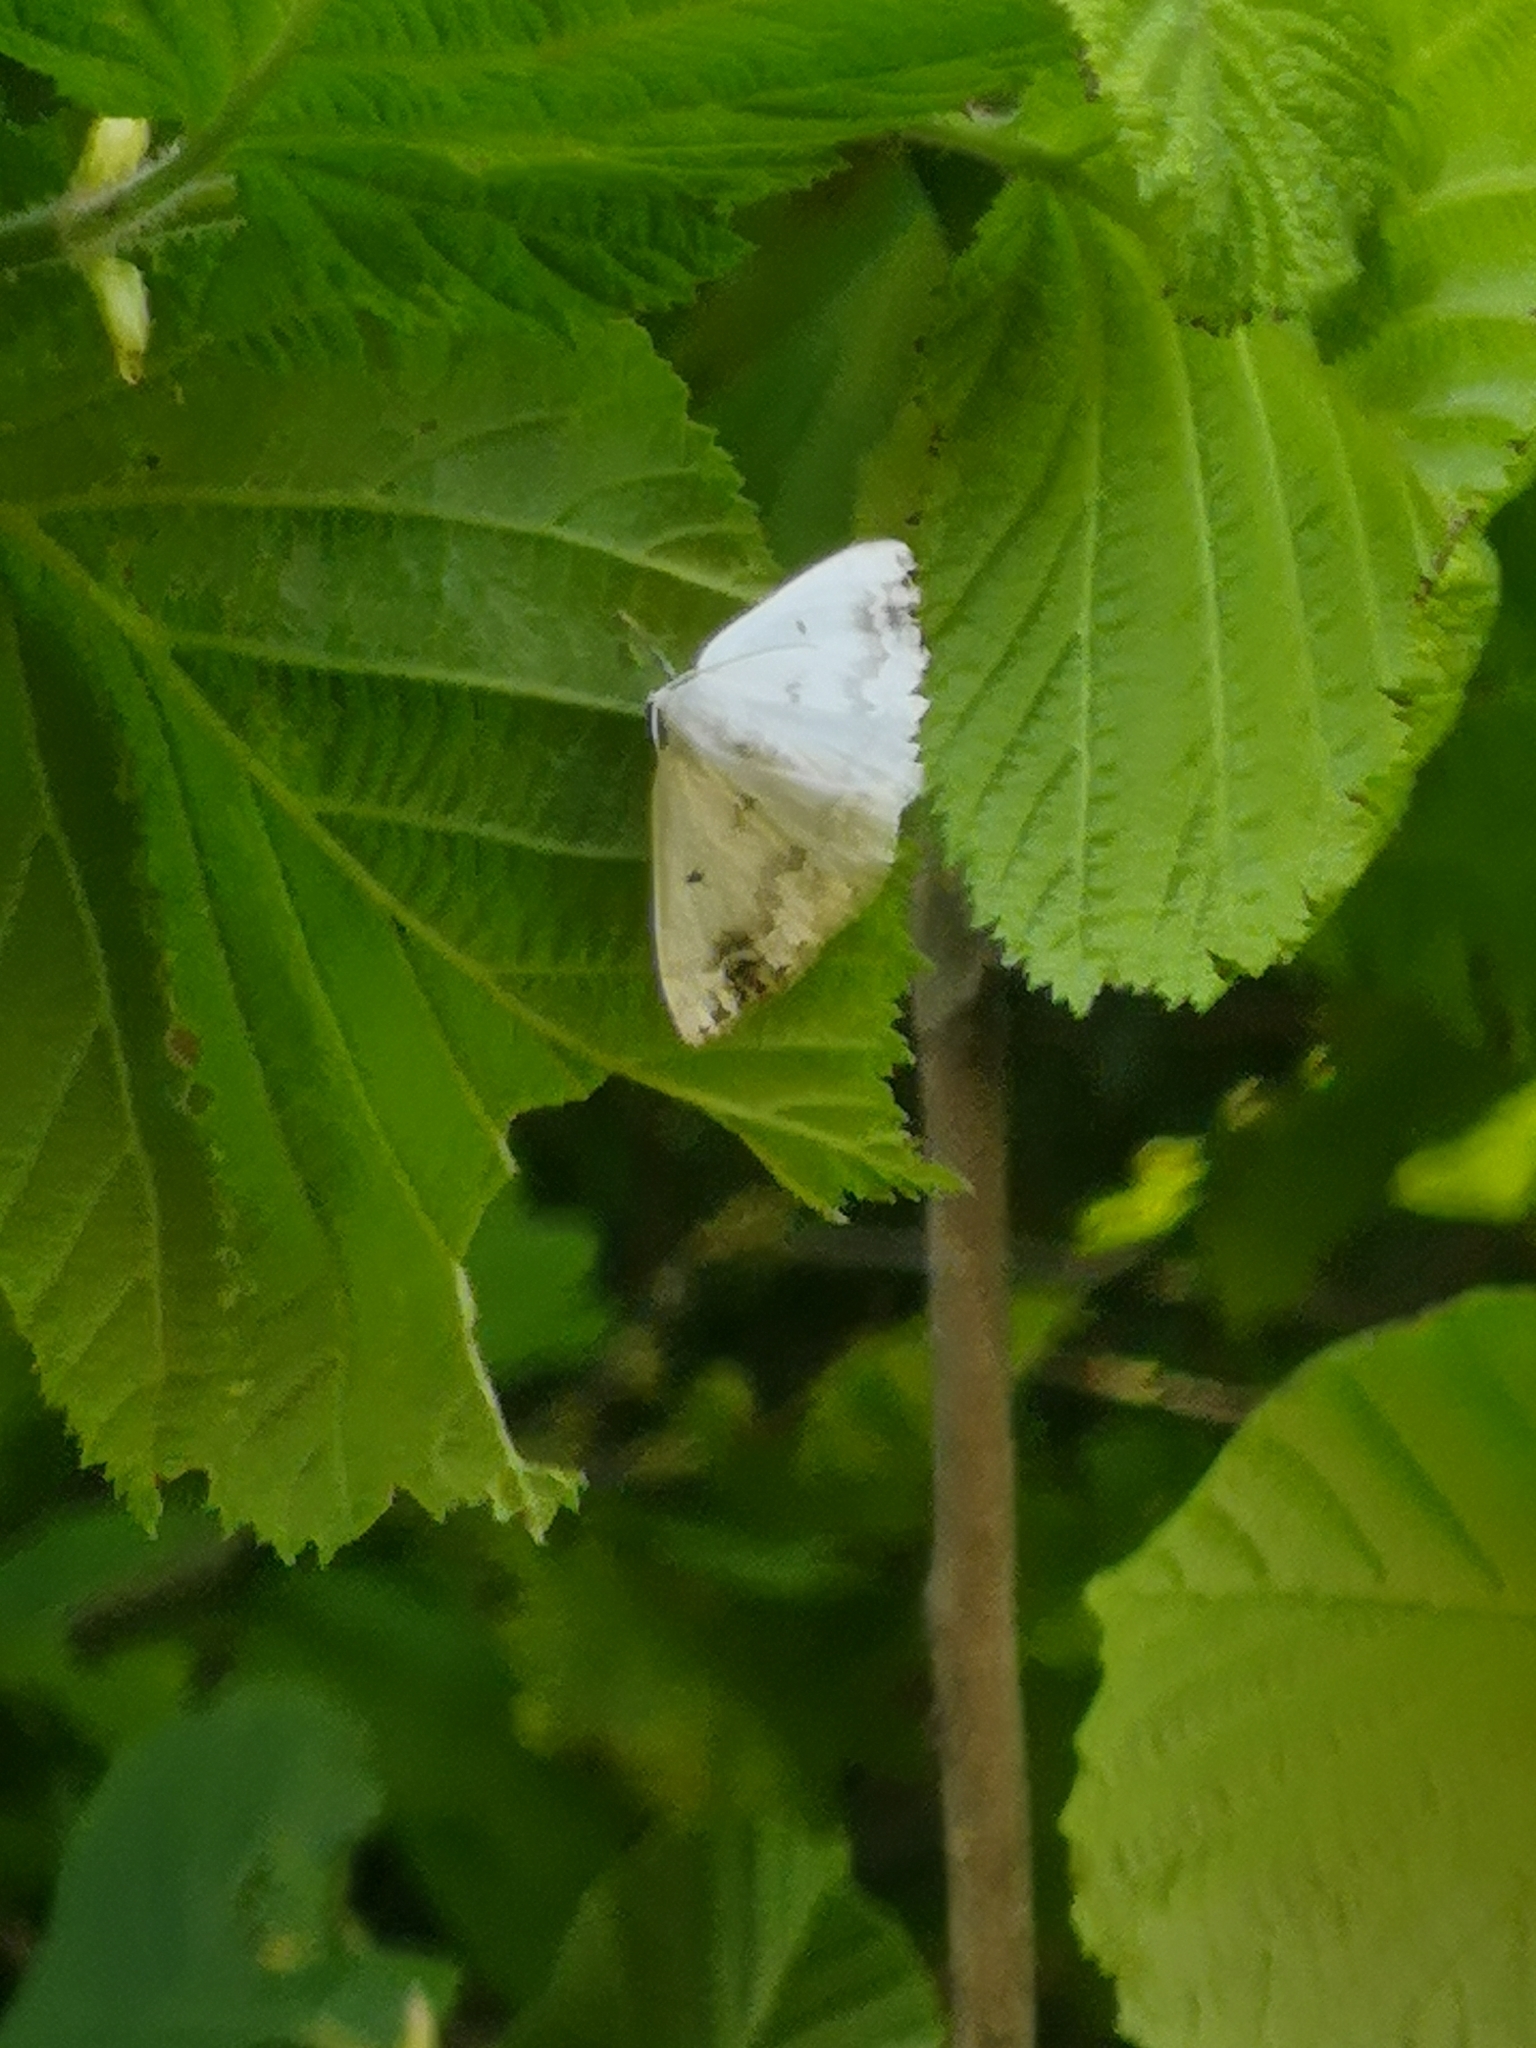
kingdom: Animalia
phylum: Arthropoda
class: Insecta
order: Lepidoptera
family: Geometridae
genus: Lomographa
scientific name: Lomographa temerata
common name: Clouded silver
